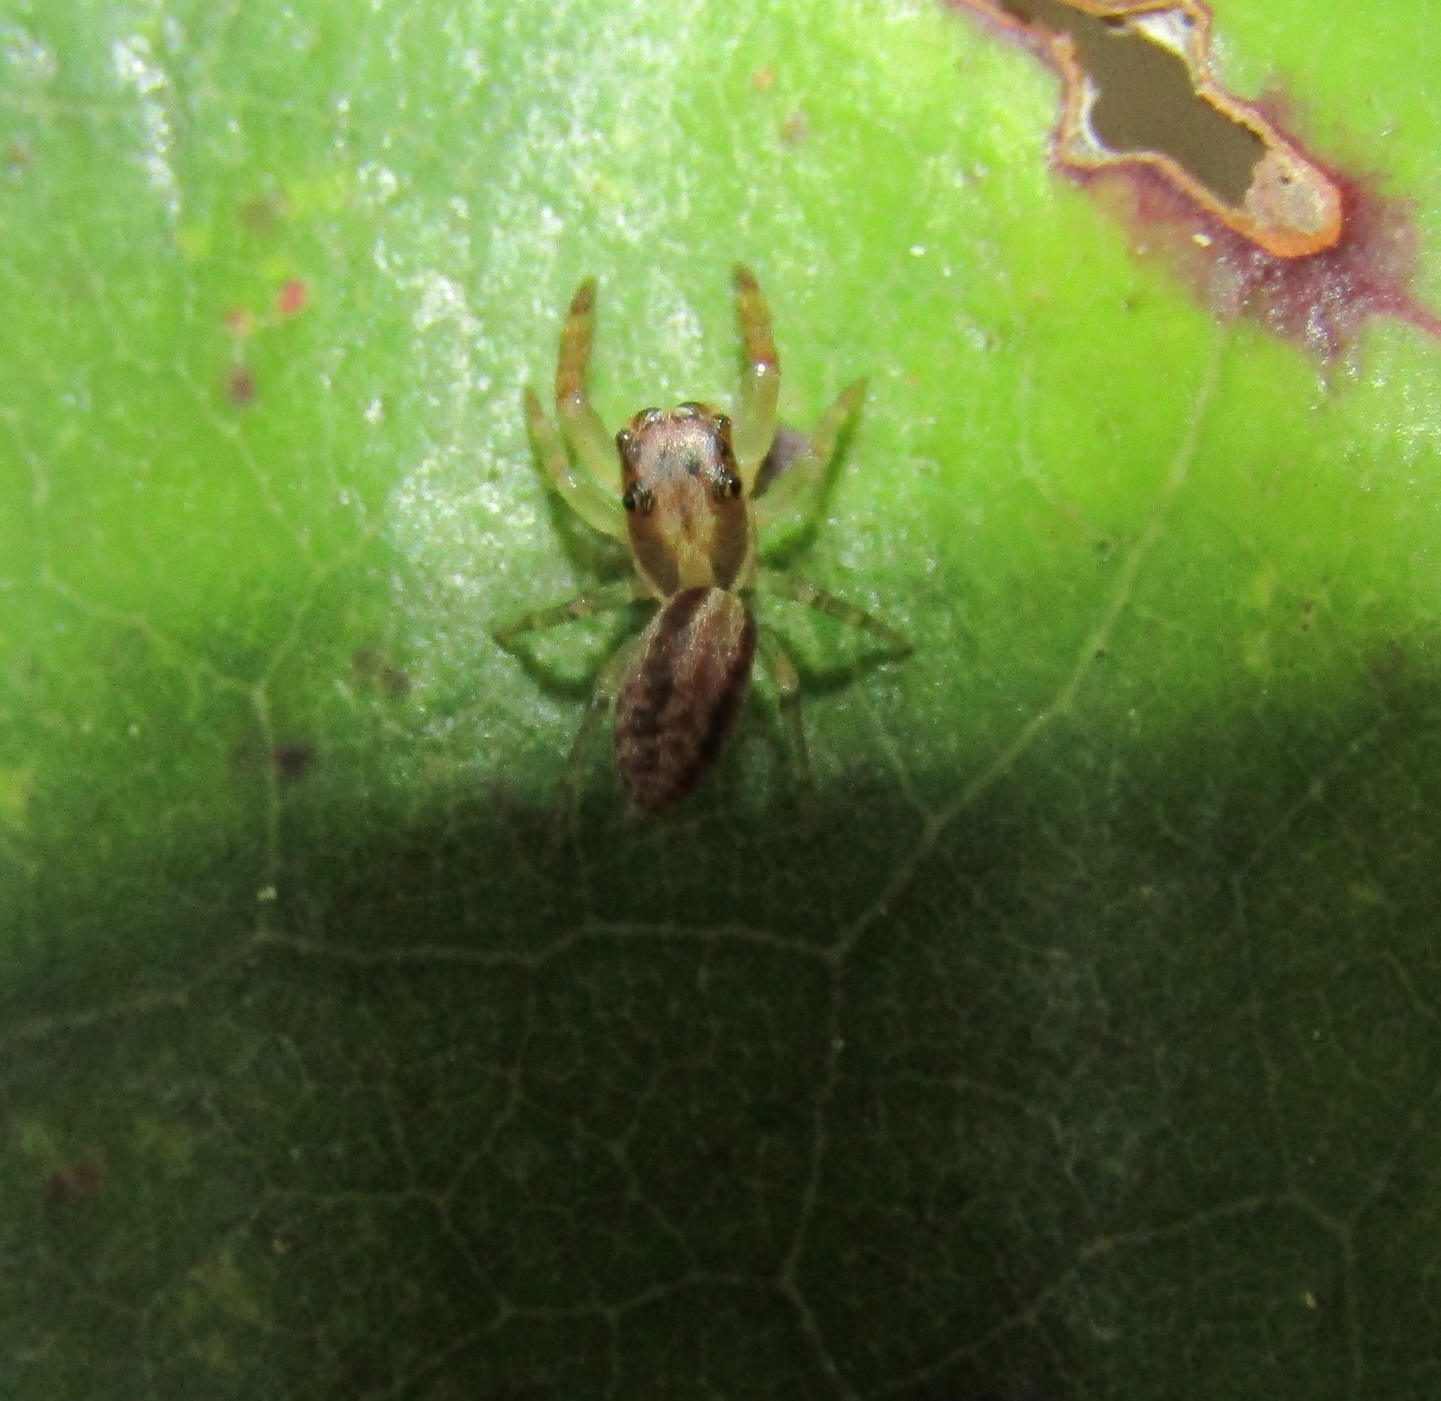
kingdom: Animalia
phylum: Arthropoda
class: Arachnida
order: Araneae
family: Salticidae
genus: Trite
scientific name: Trite mustilina
